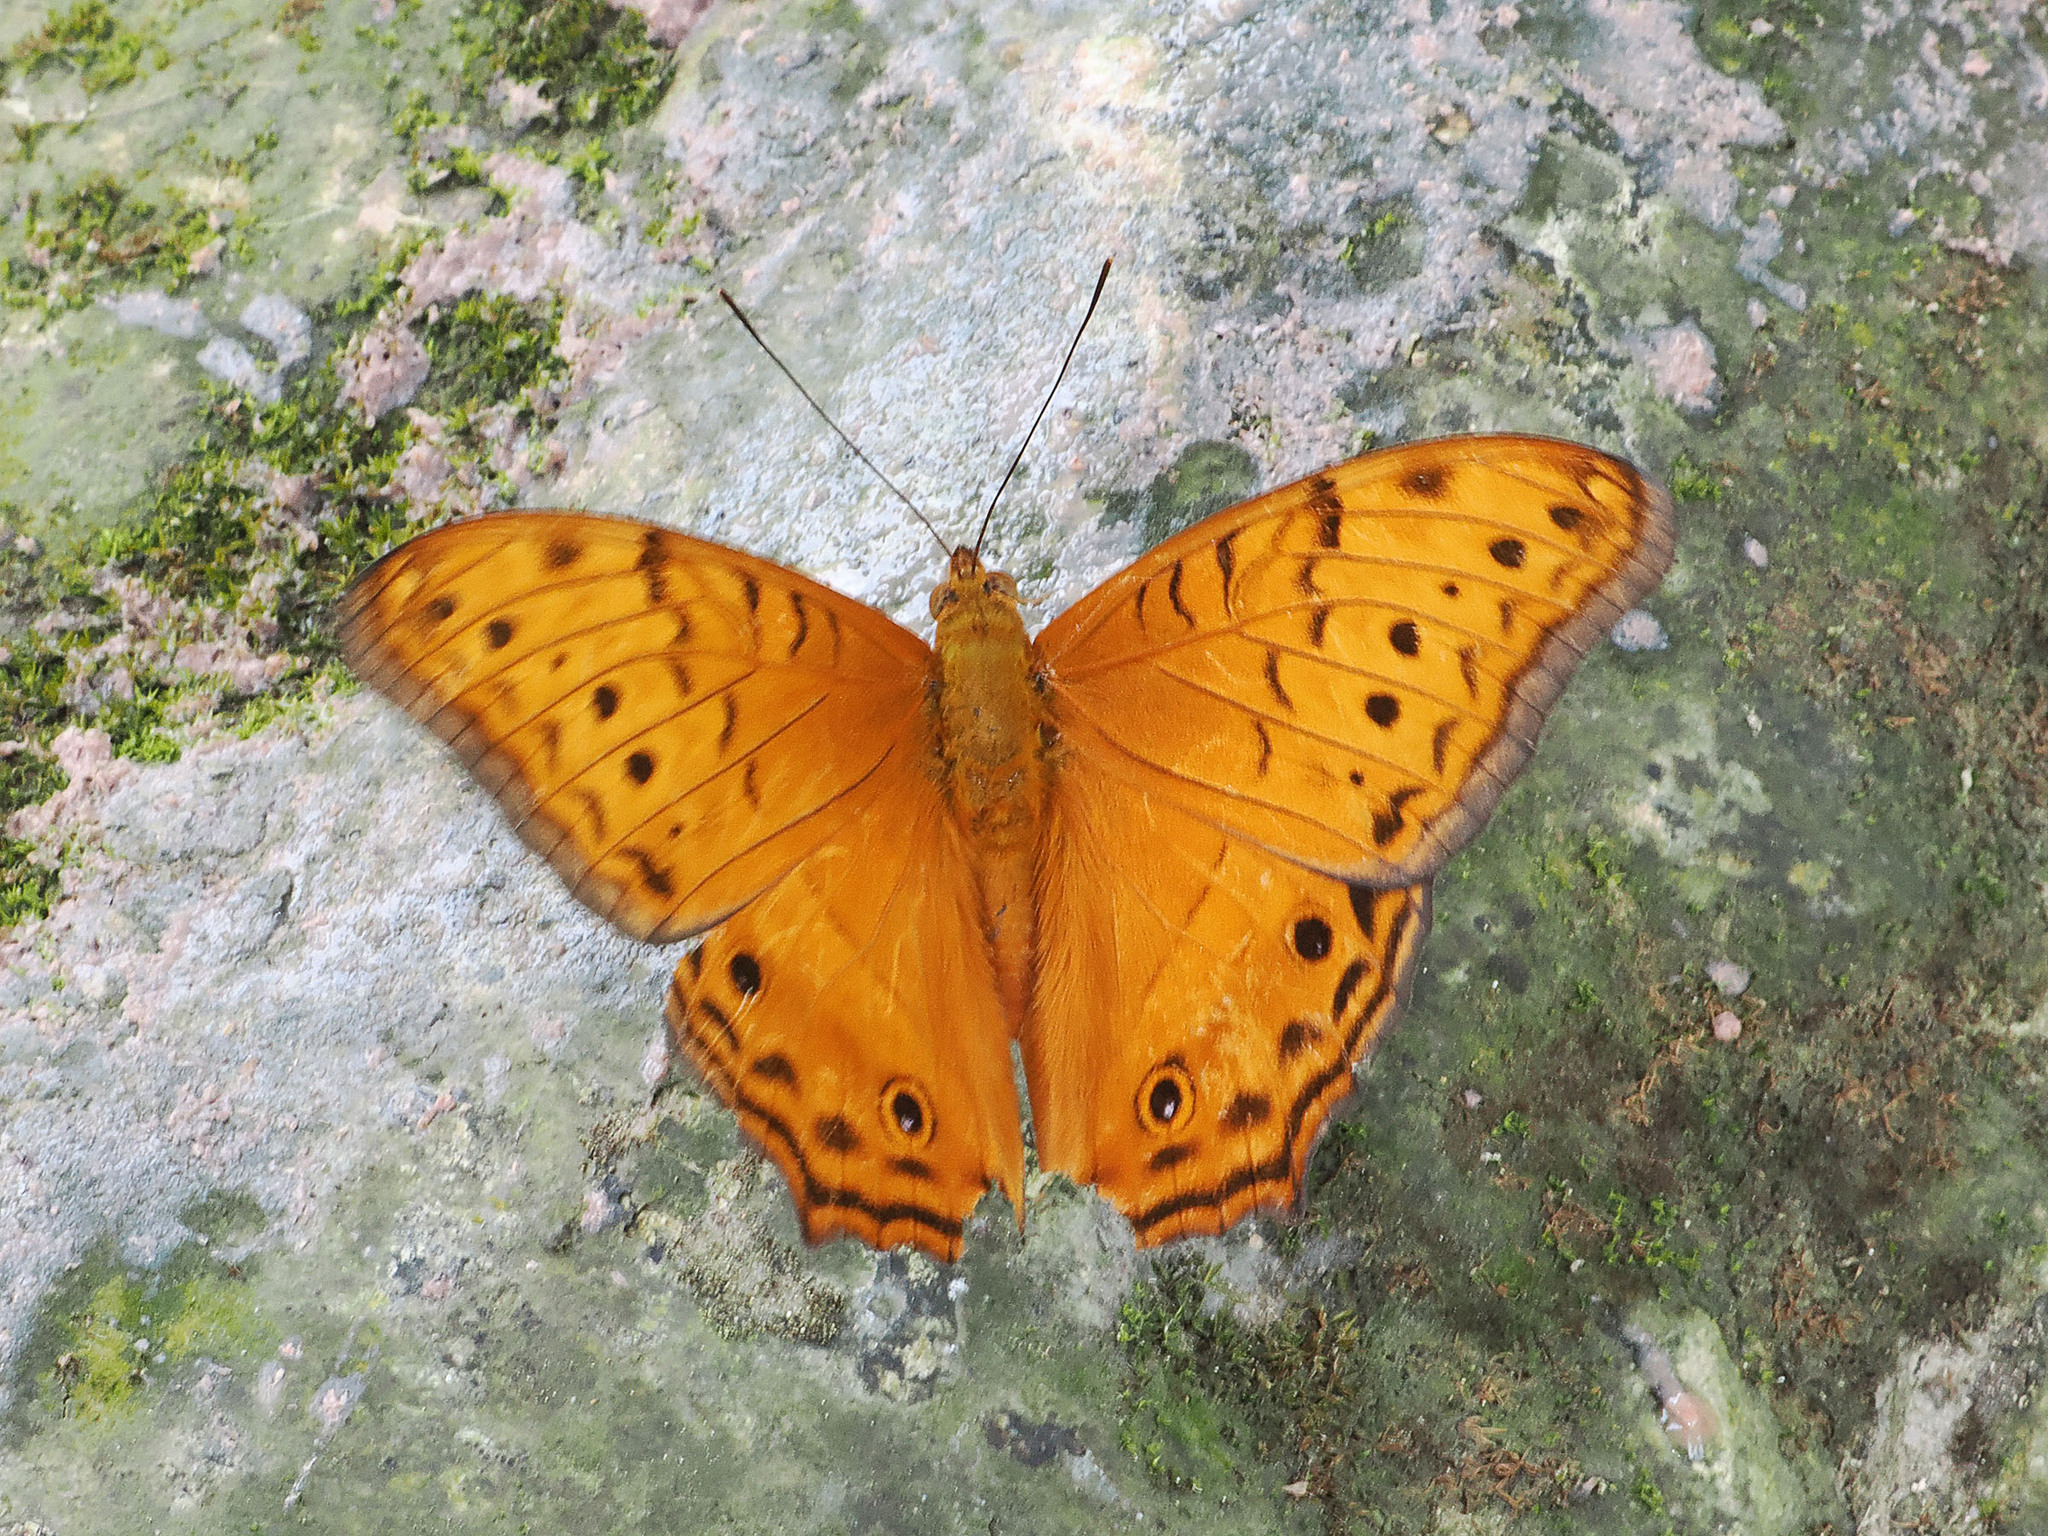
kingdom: Animalia
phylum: Arthropoda
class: Insecta
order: Lepidoptera
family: Nymphalidae
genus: Vindula
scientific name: Vindula arsinoe
